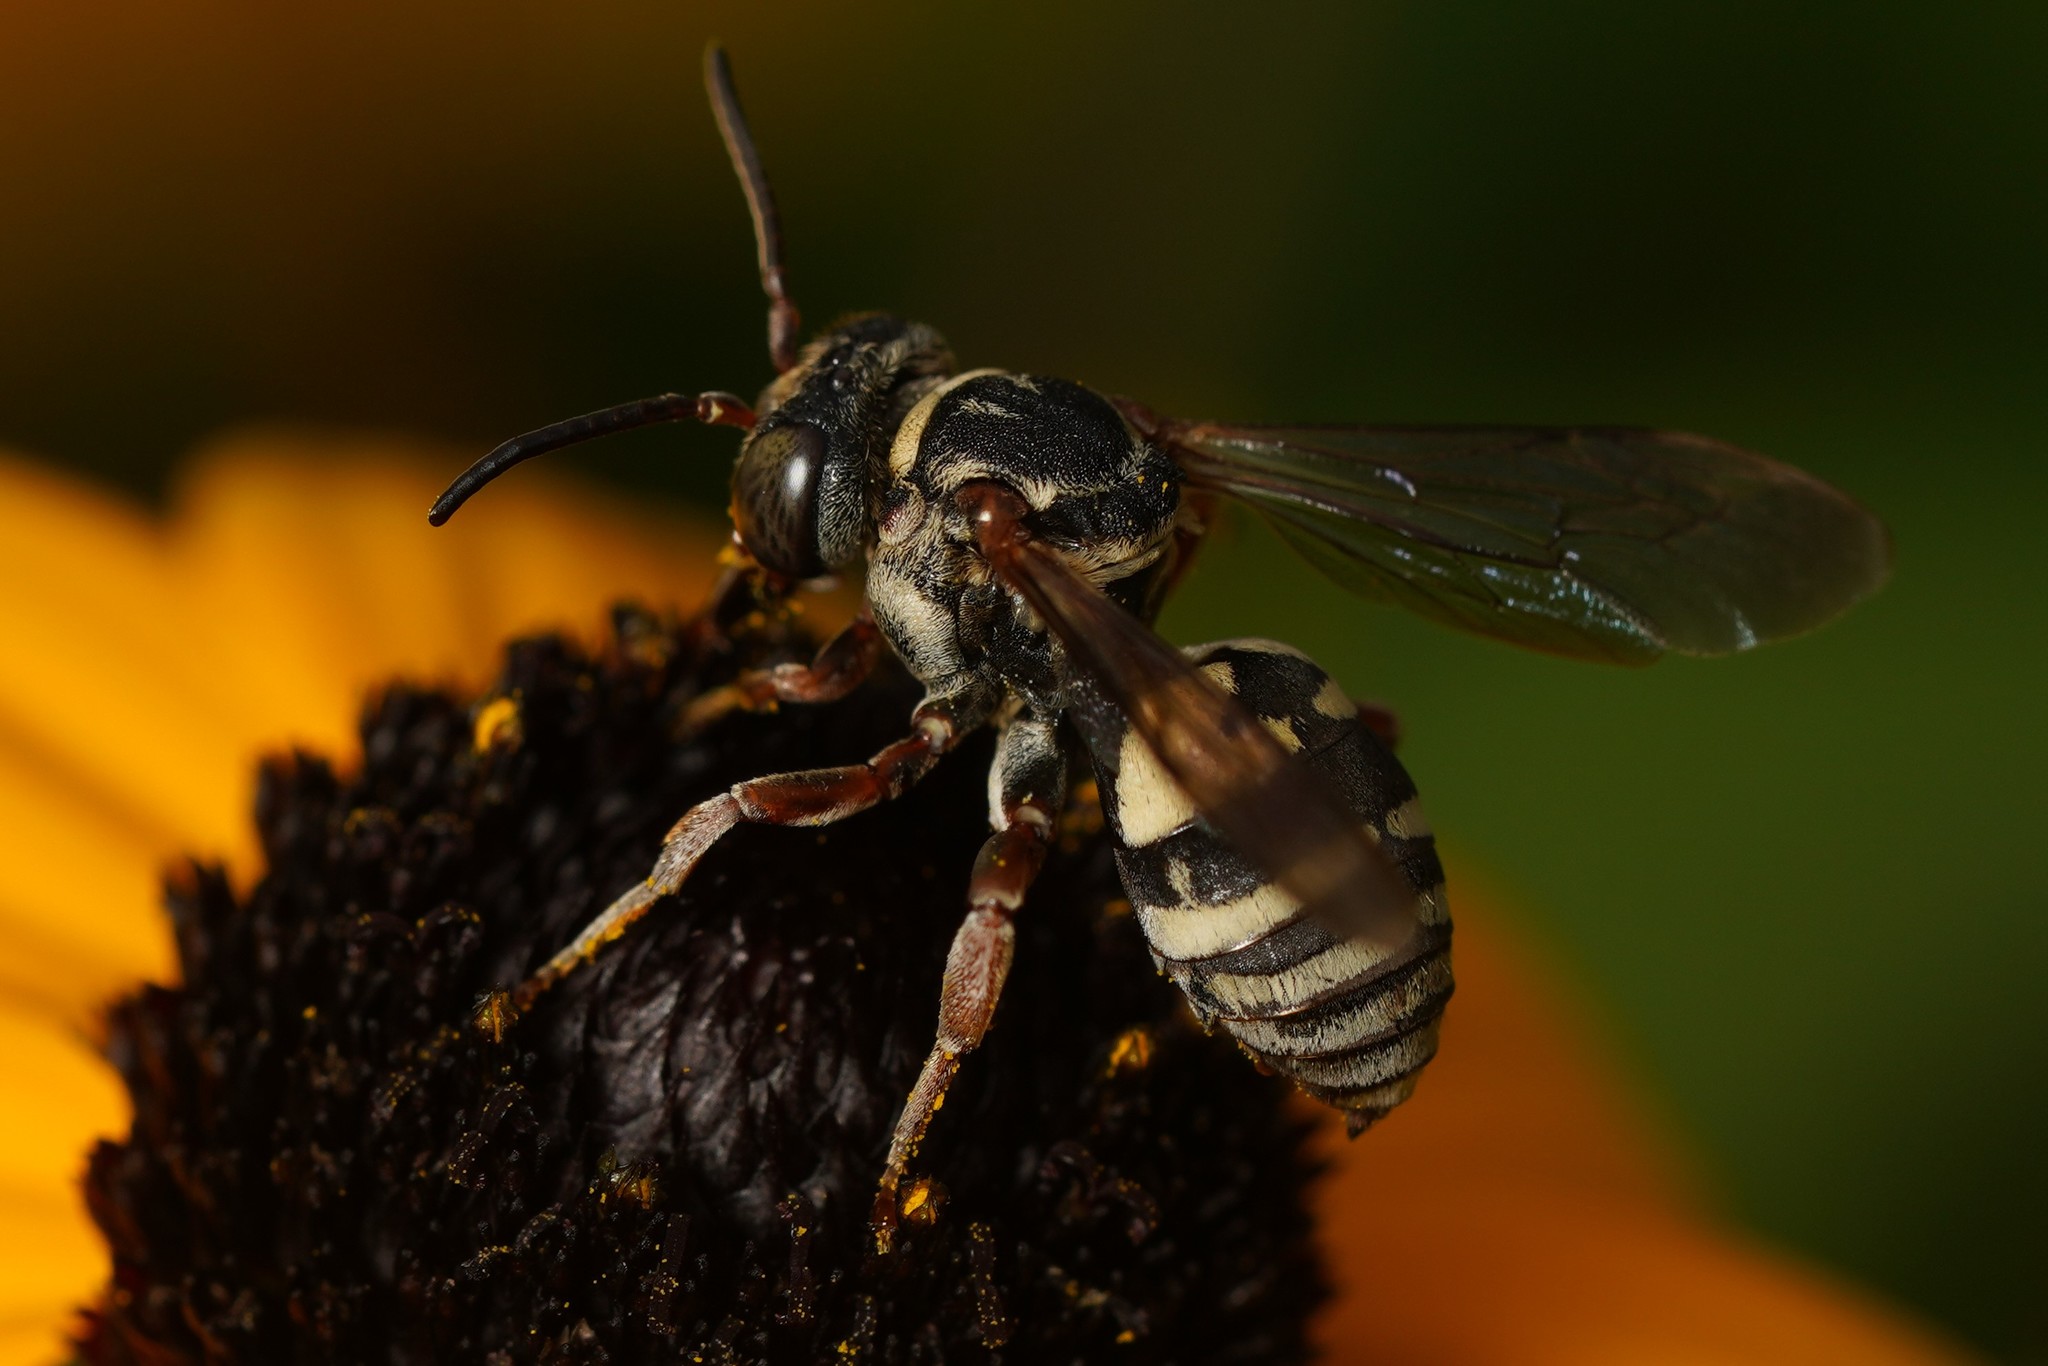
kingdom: Animalia
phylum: Arthropoda
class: Insecta
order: Hymenoptera
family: Apidae
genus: Triepeolus
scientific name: Triepeolus lunatus
